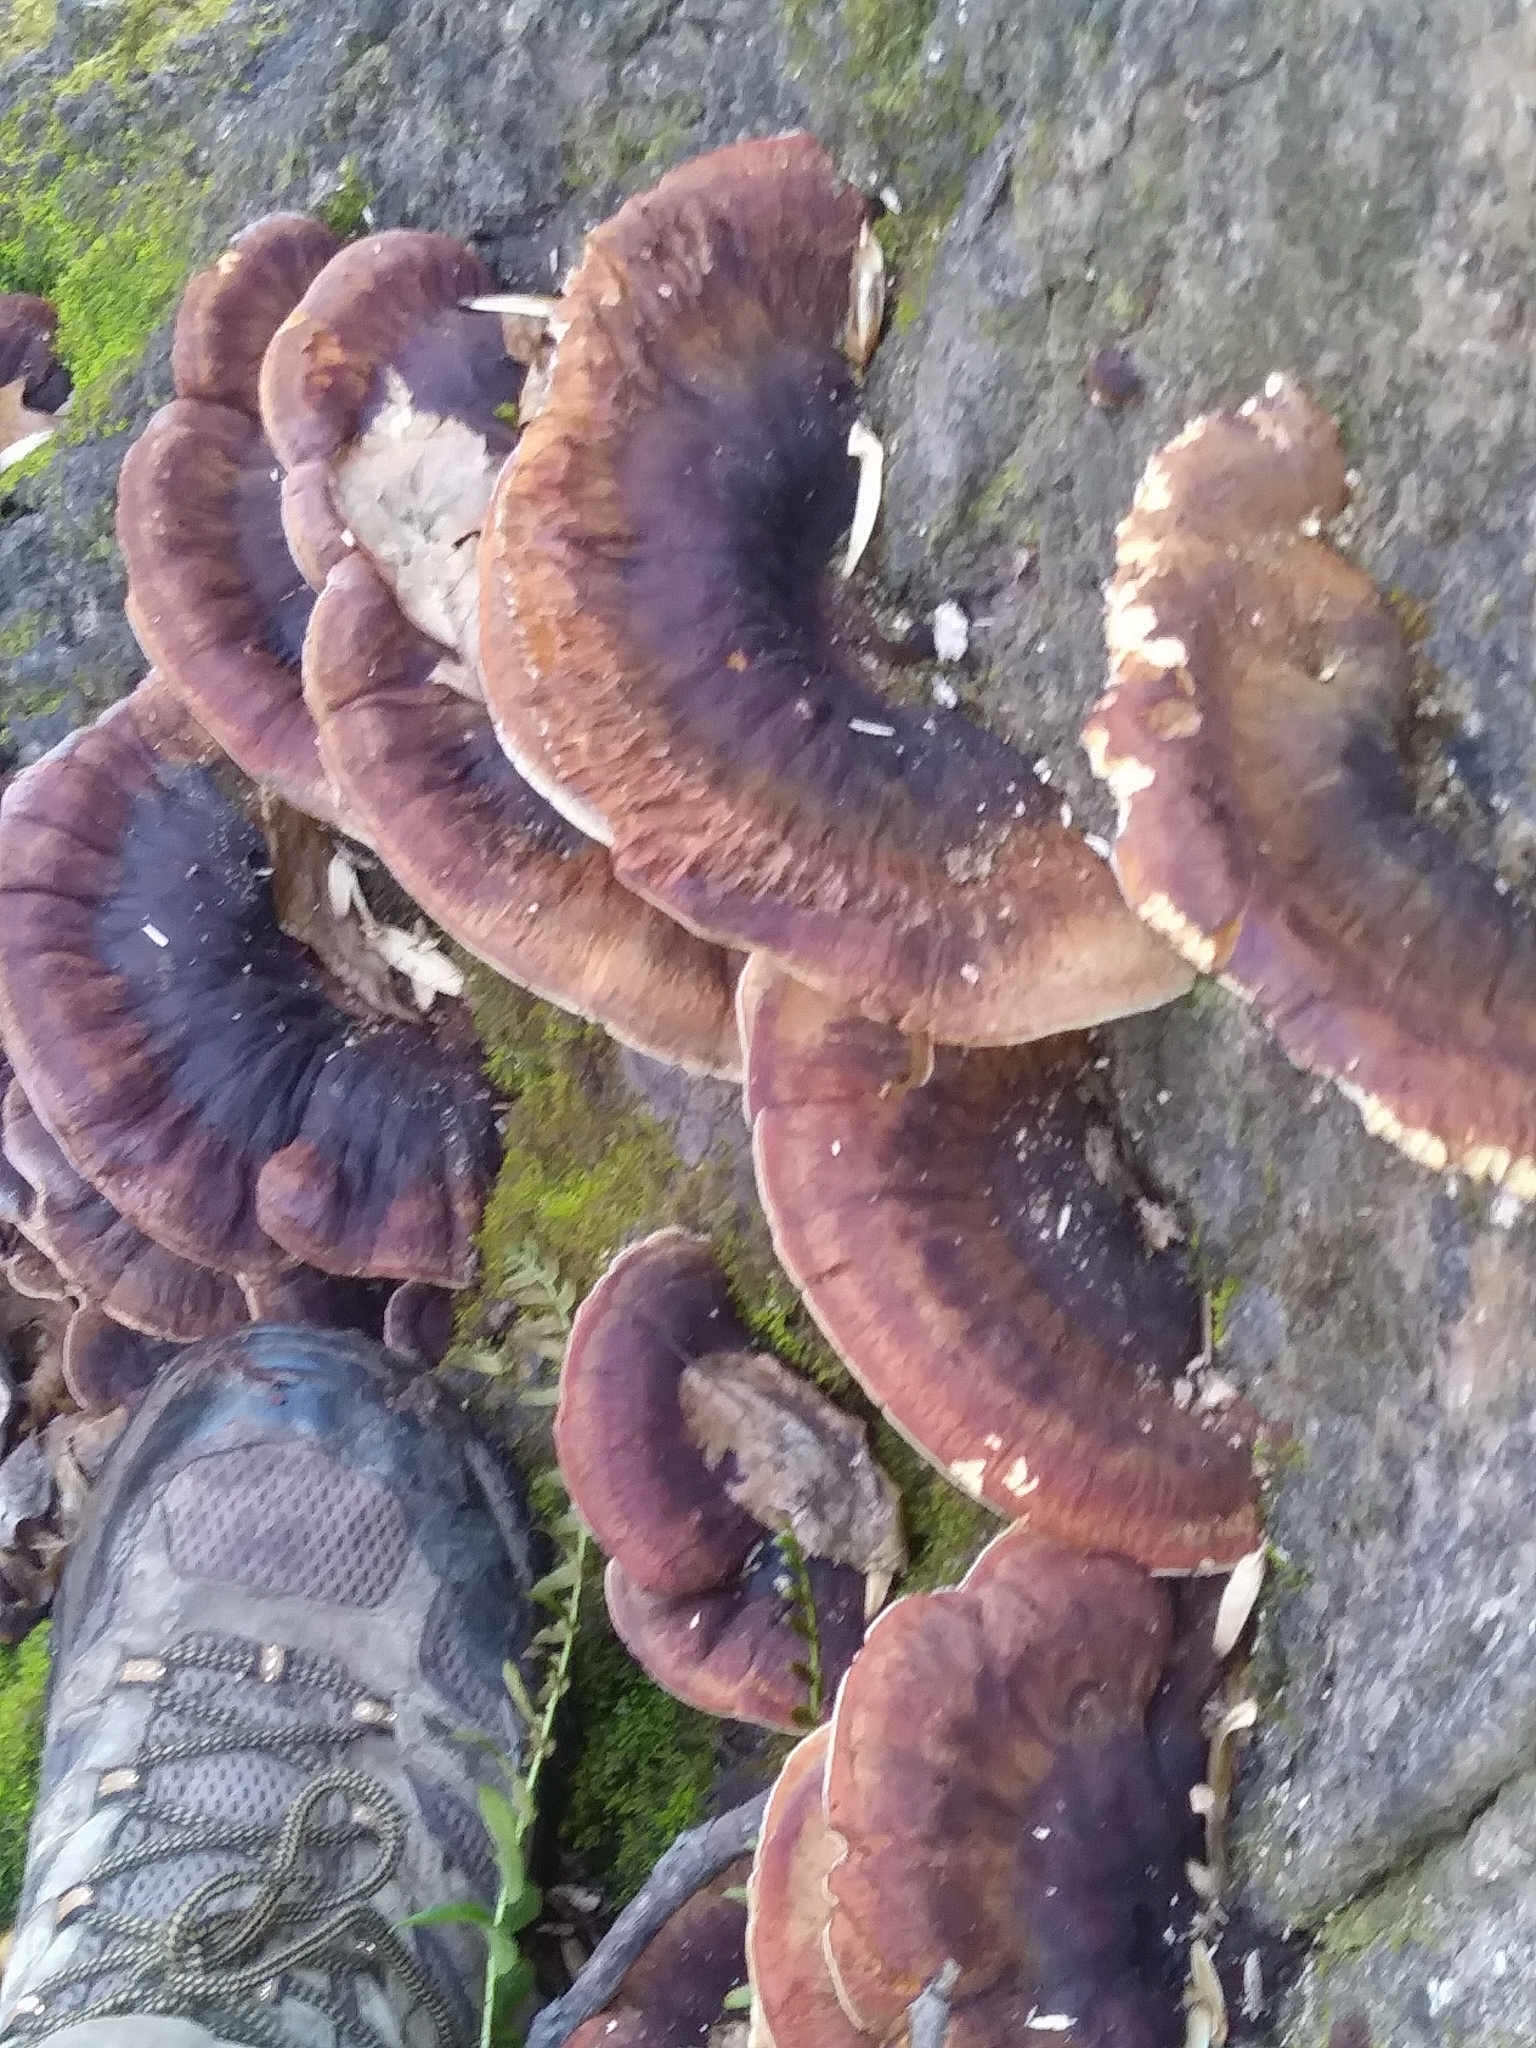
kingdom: Fungi
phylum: Basidiomycota
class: Agaricomycetes
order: Polyporales
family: Ischnodermataceae
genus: Ischnoderma
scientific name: Ischnoderma resinosum
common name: Resinous polypore
